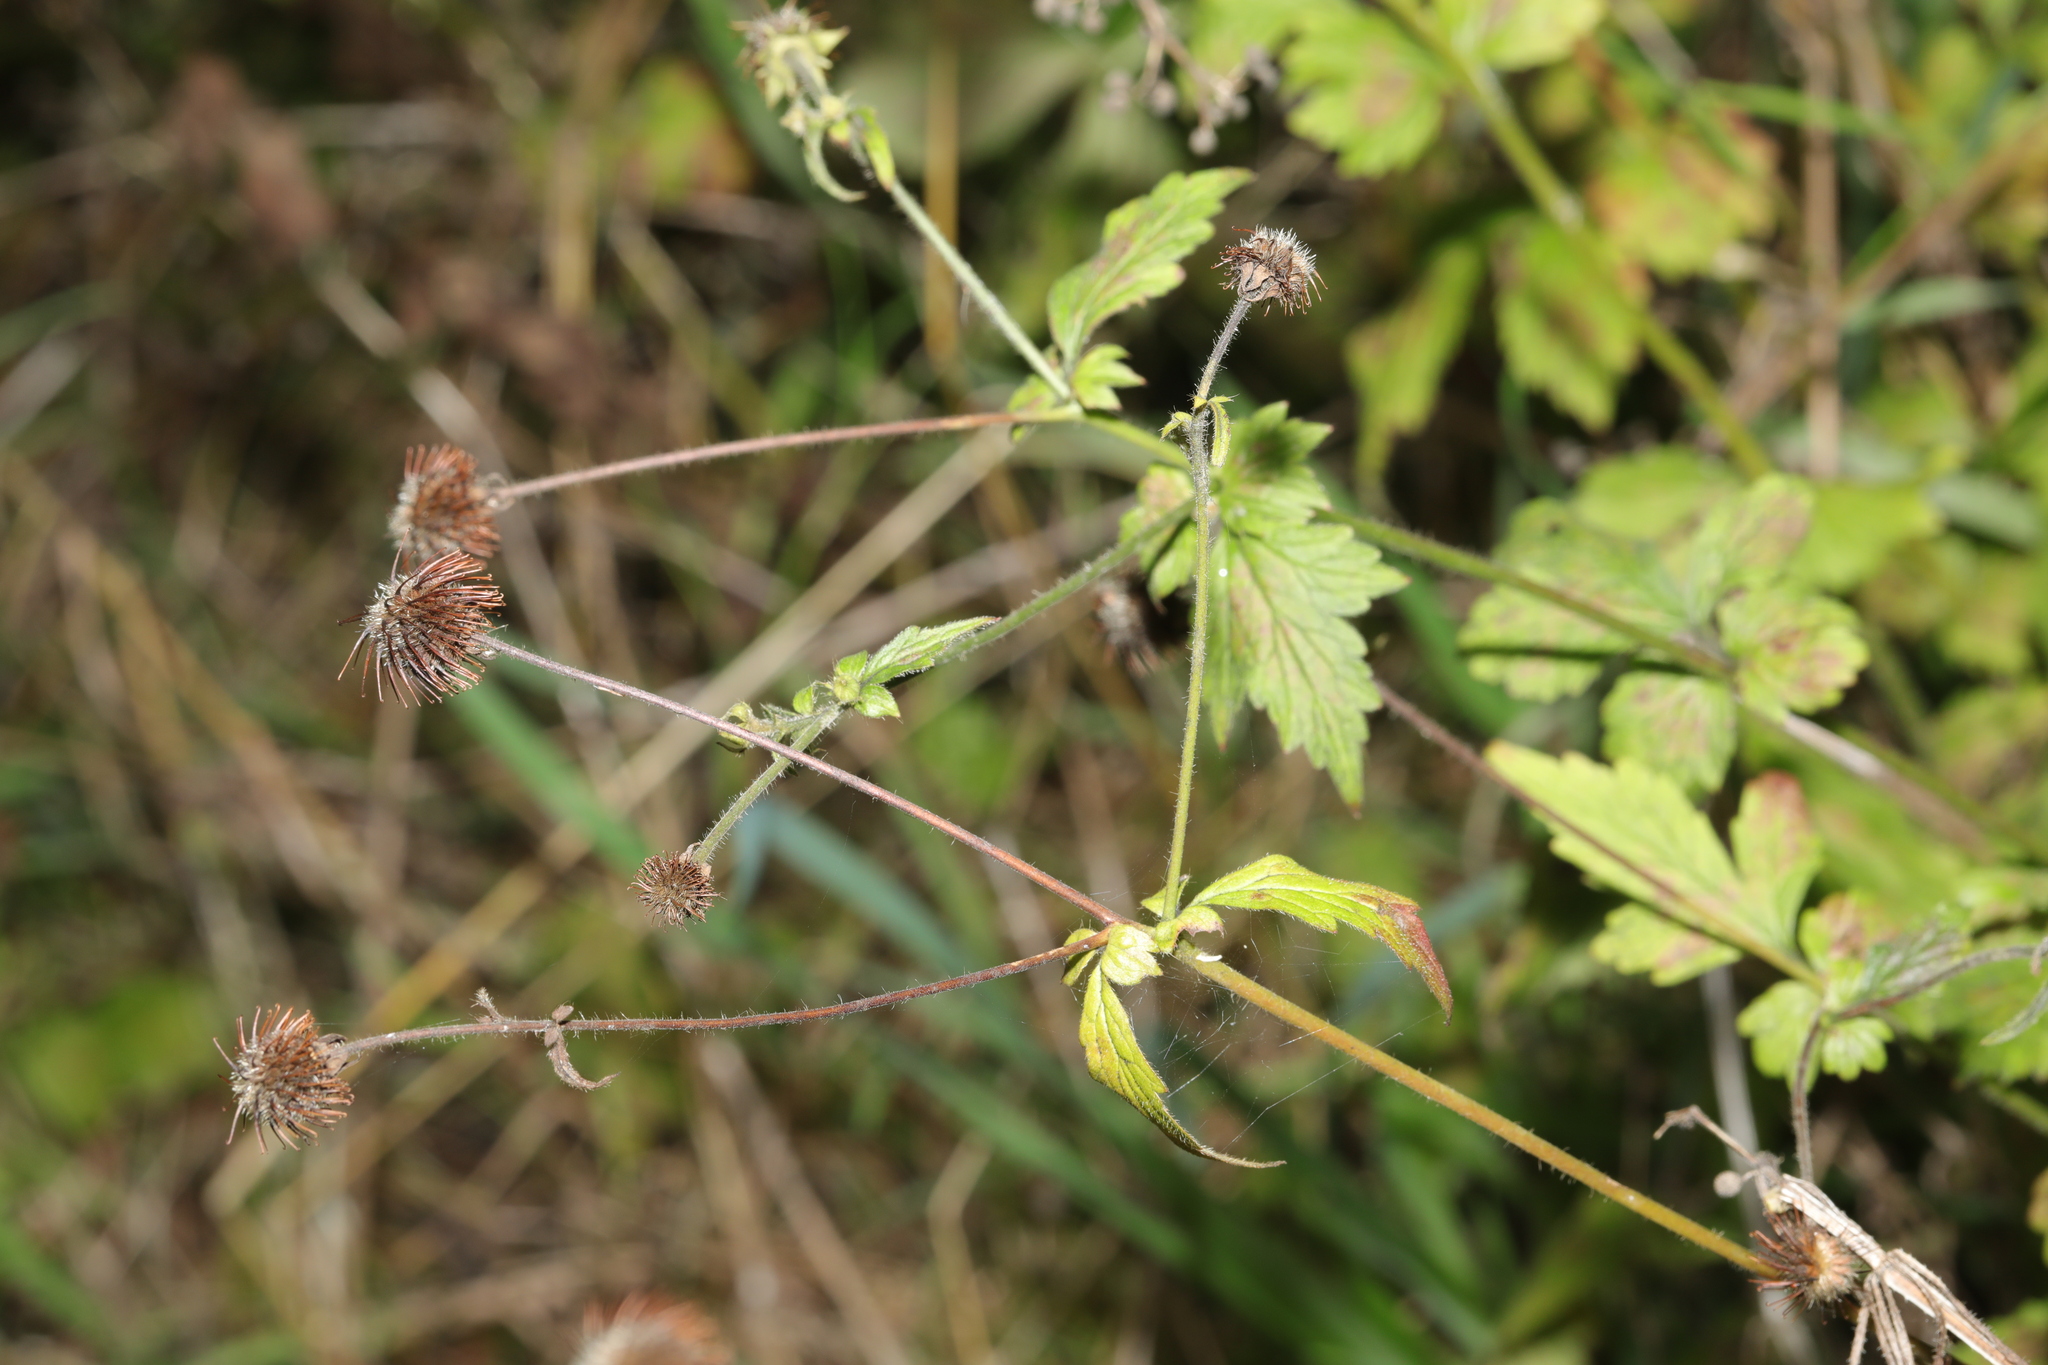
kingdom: Plantae
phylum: Tracheophyta
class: Magnoliopsida
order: Rosales
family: Rosaceae
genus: Geum
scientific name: Geum urbanum
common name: Wood avens
